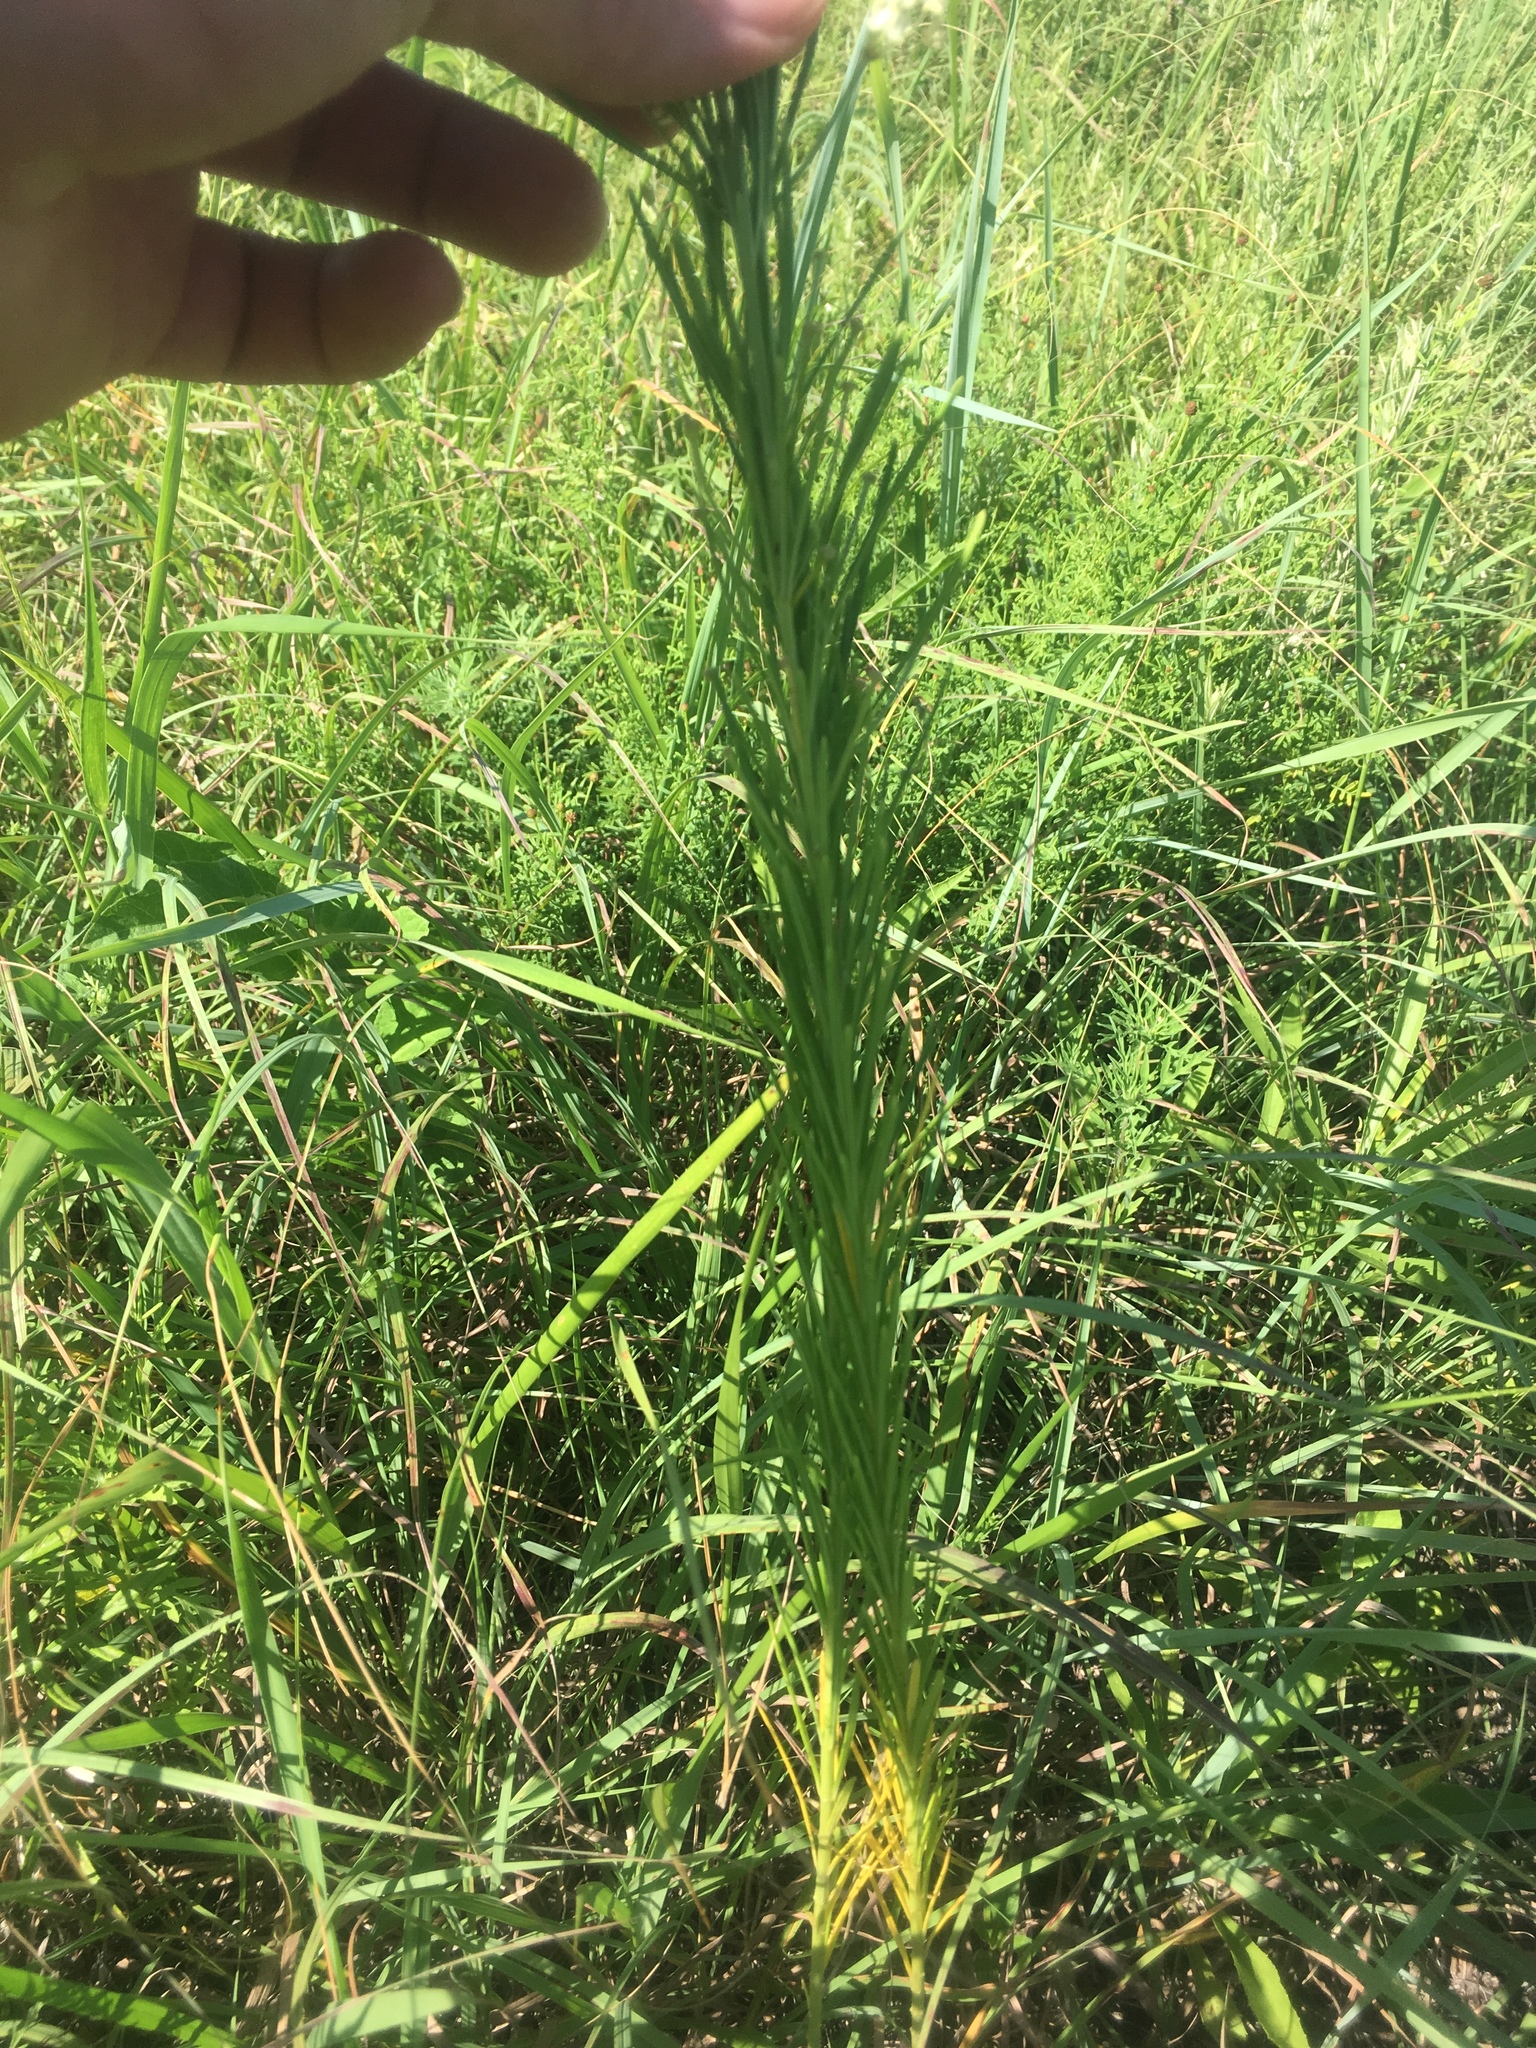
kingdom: Plantae
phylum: Tracheophyta
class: Magnoliopsida
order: Gentianales
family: Apocynaceae
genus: Asclepias
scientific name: Asclepias verticillata
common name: Eastern whorled milkweed
